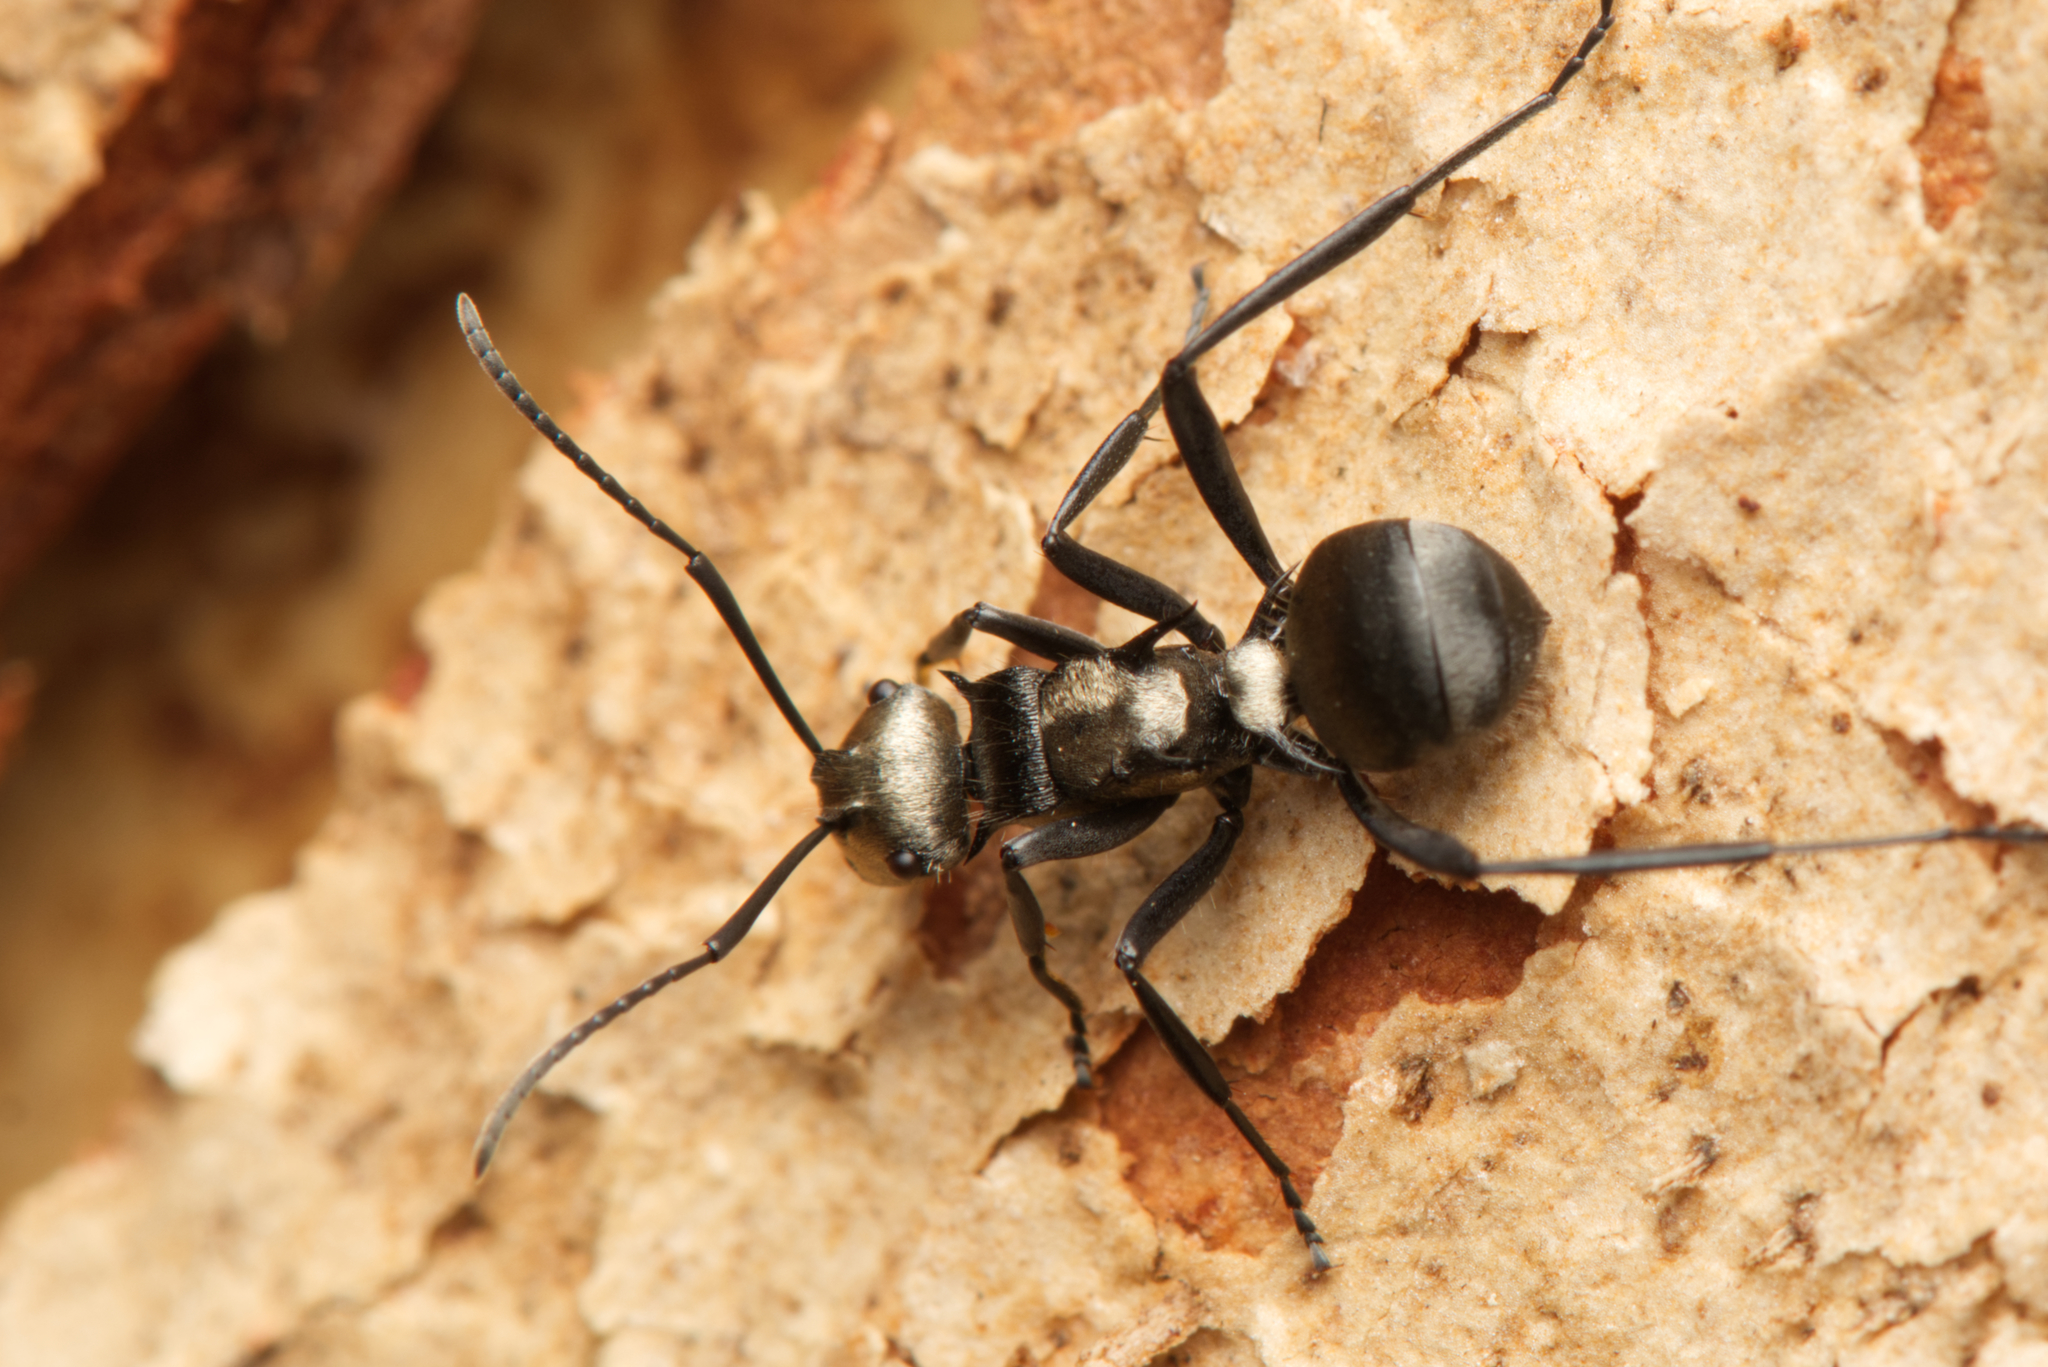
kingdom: Animalia
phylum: Arthropoda
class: Insecta
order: Hymenoptera
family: Formicidae
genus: Polyrhachis
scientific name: Polyrhachis daemeli
